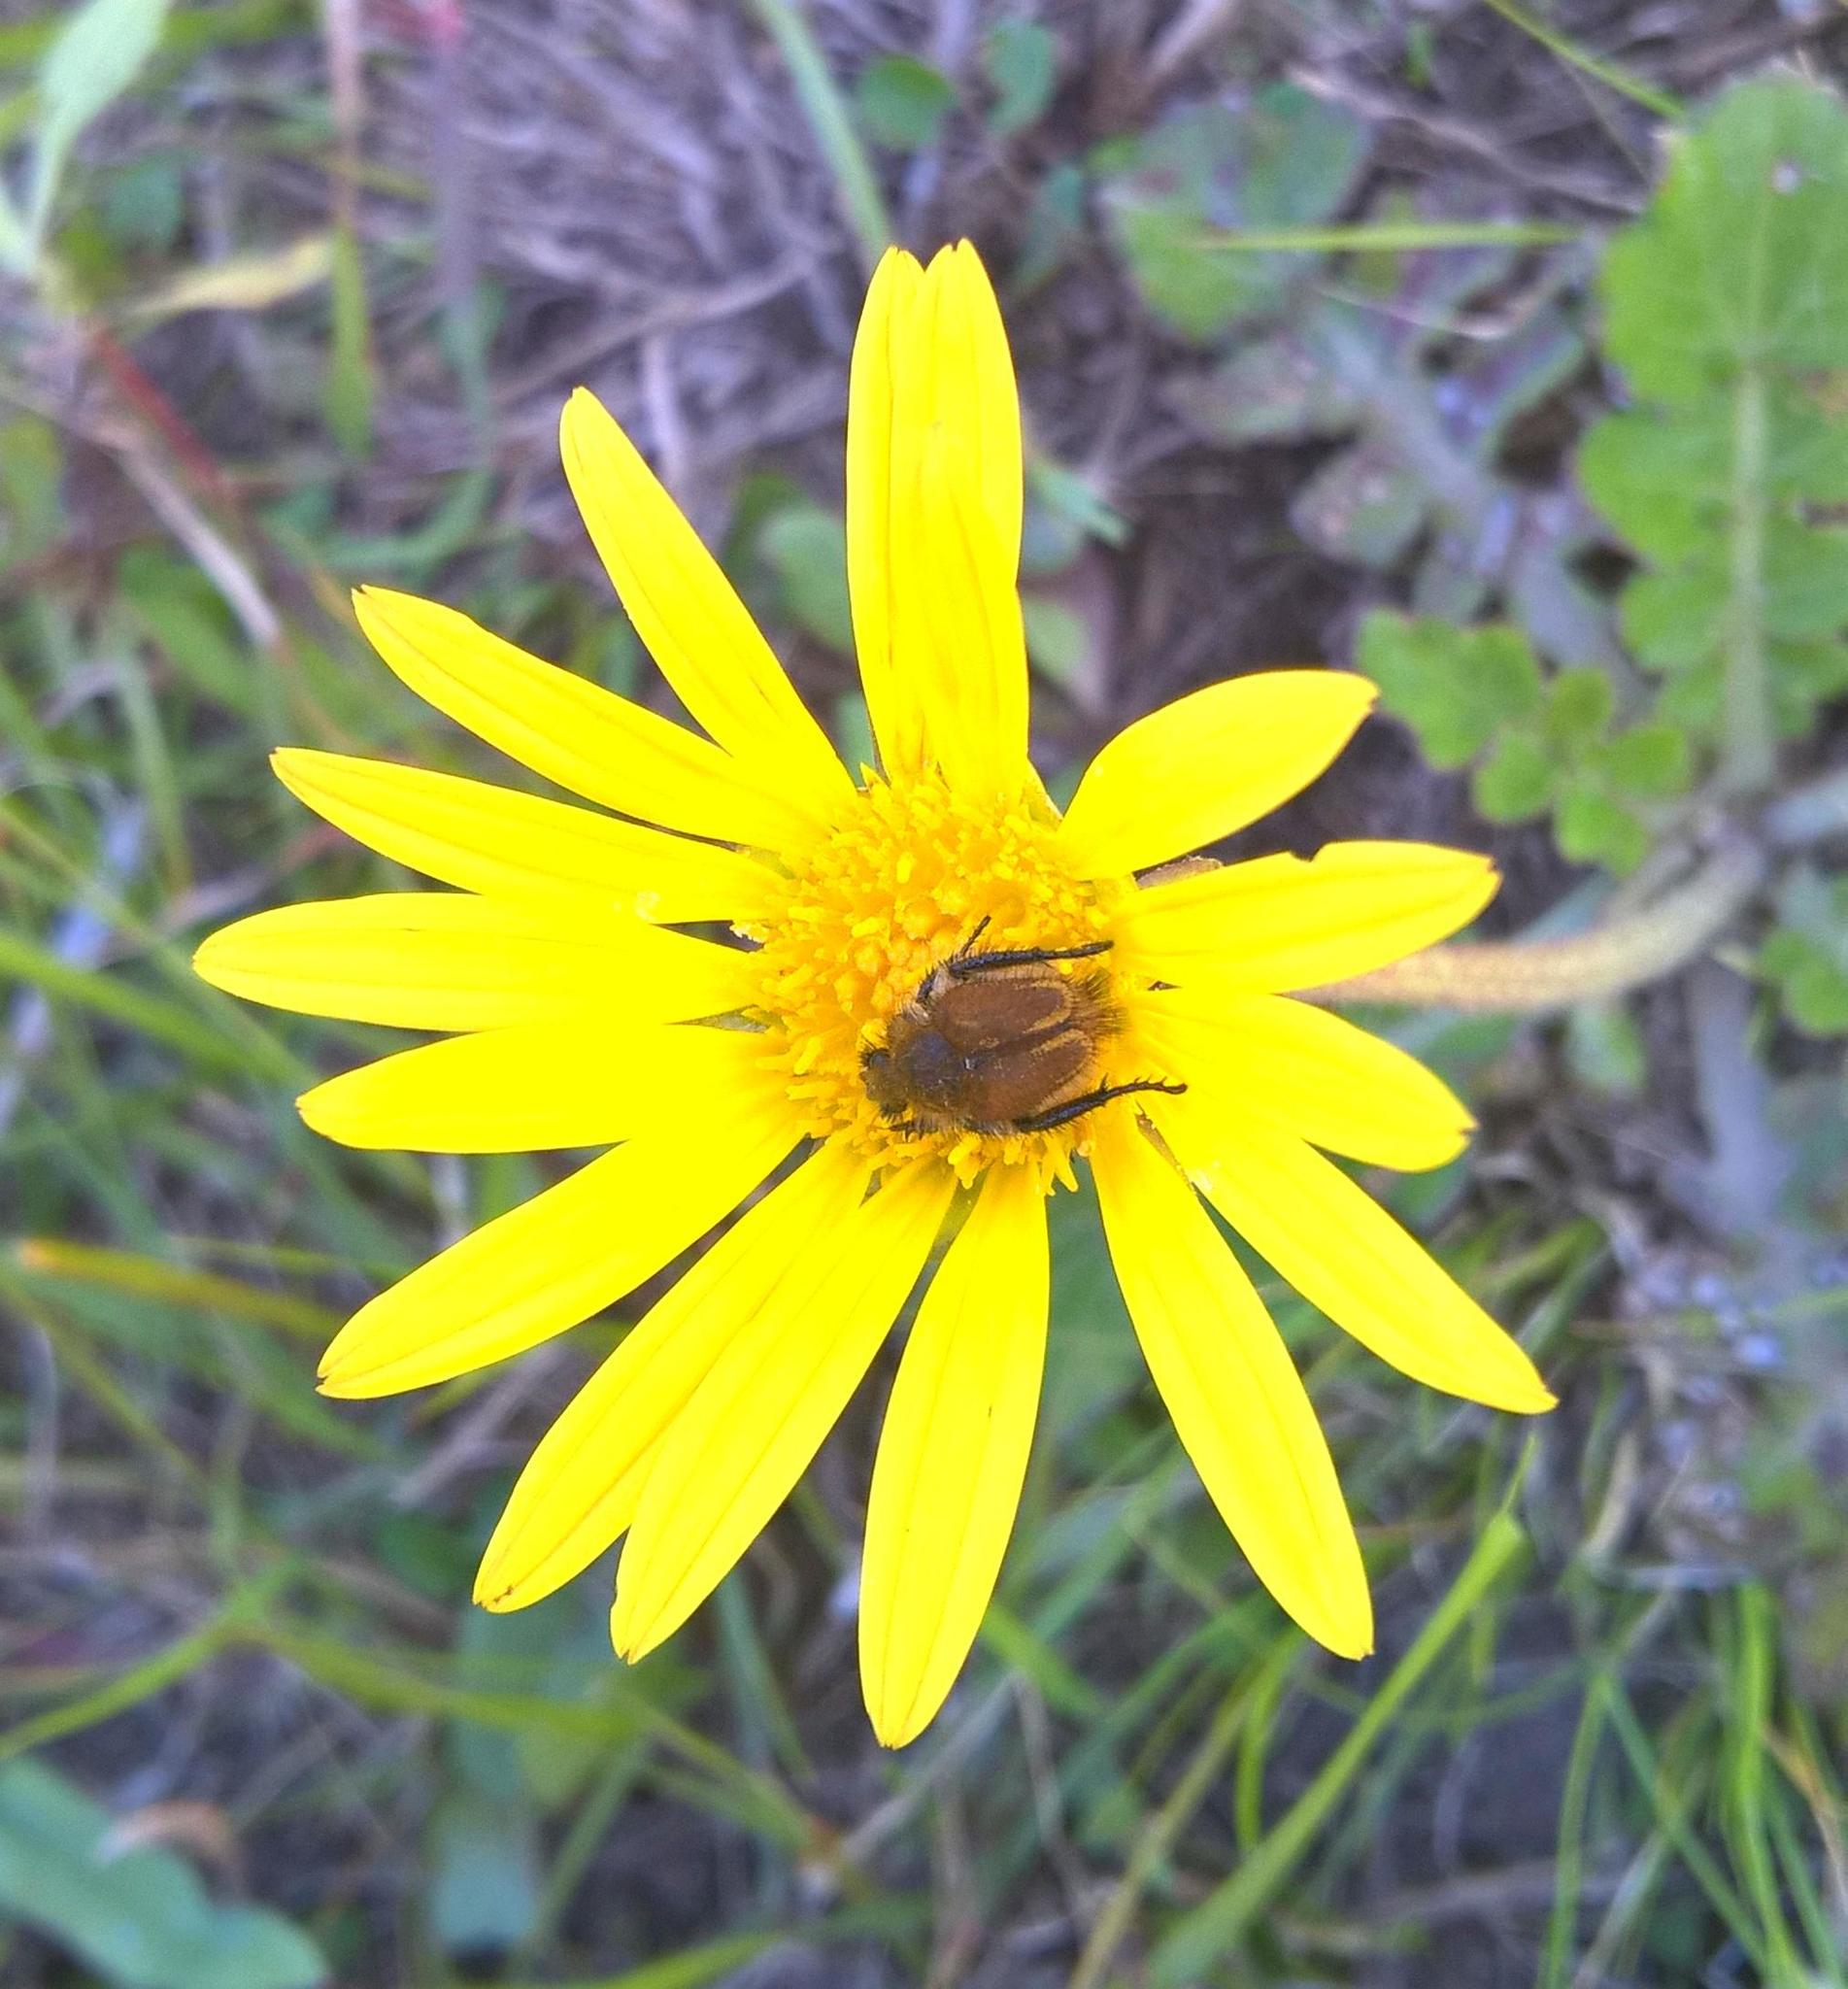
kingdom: Plantae
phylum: Tracheophyta
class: Magnoliopsida
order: Asterales
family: Asteraceae
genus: Arctotheca
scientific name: Arctotheca prostrata
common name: Capeweed
